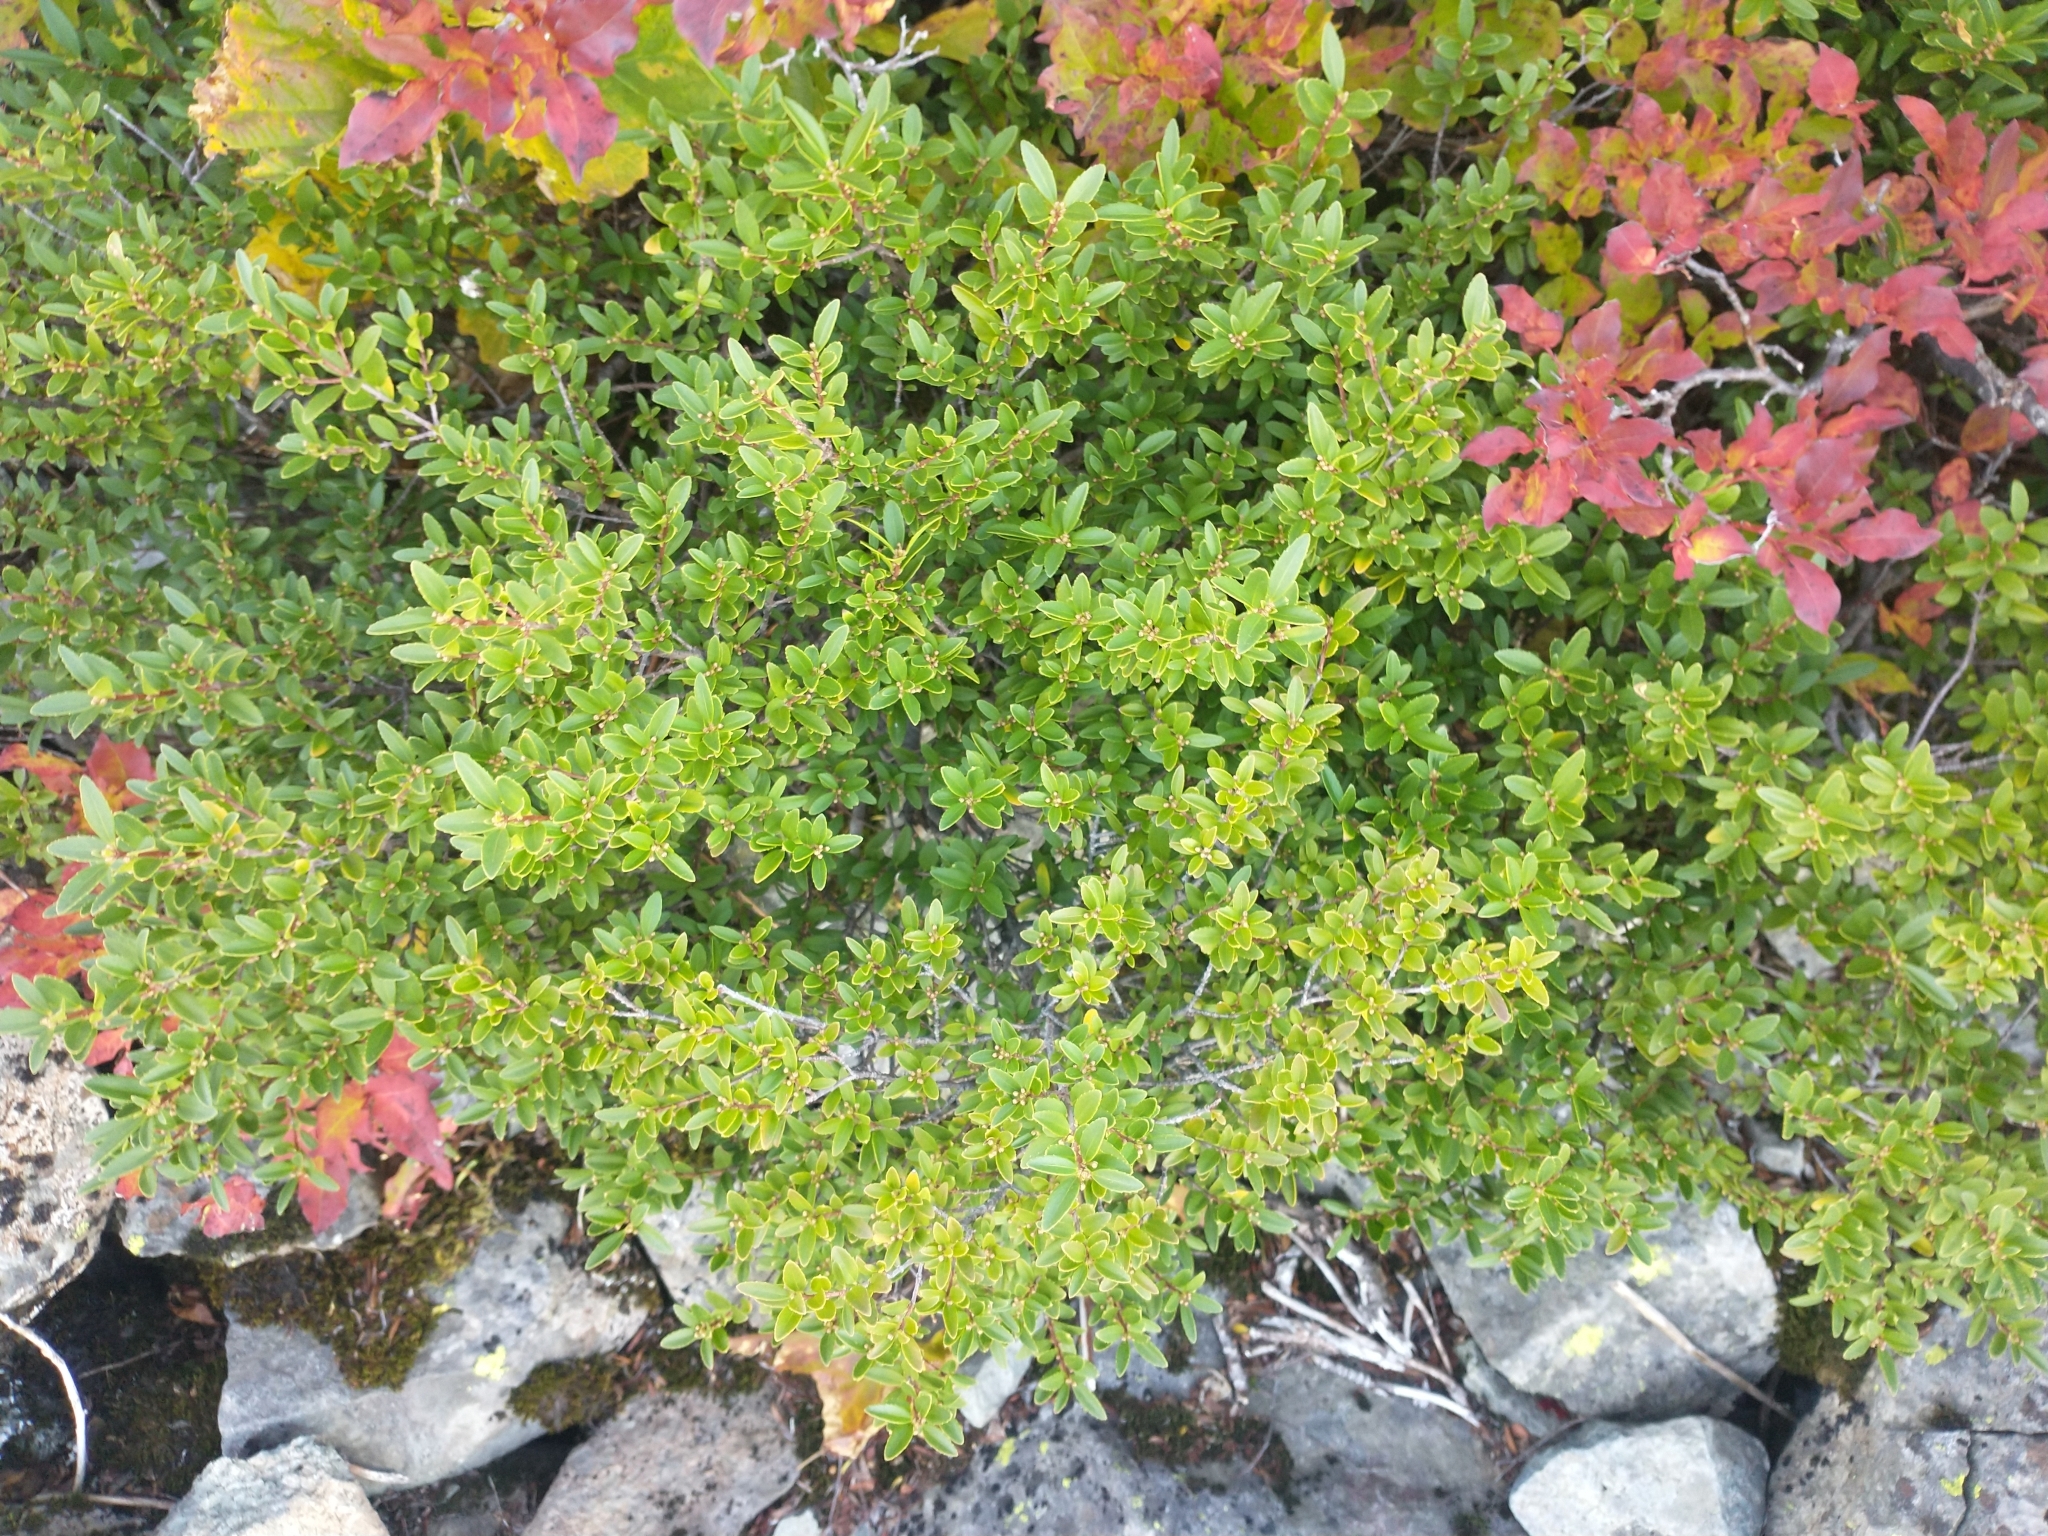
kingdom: Plantae
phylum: Tracheophyta
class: Magnoliopsida
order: Celastrales
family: Celastraceae
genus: Paxistima
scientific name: Paxistima myrsinites
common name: Mountain-lover
